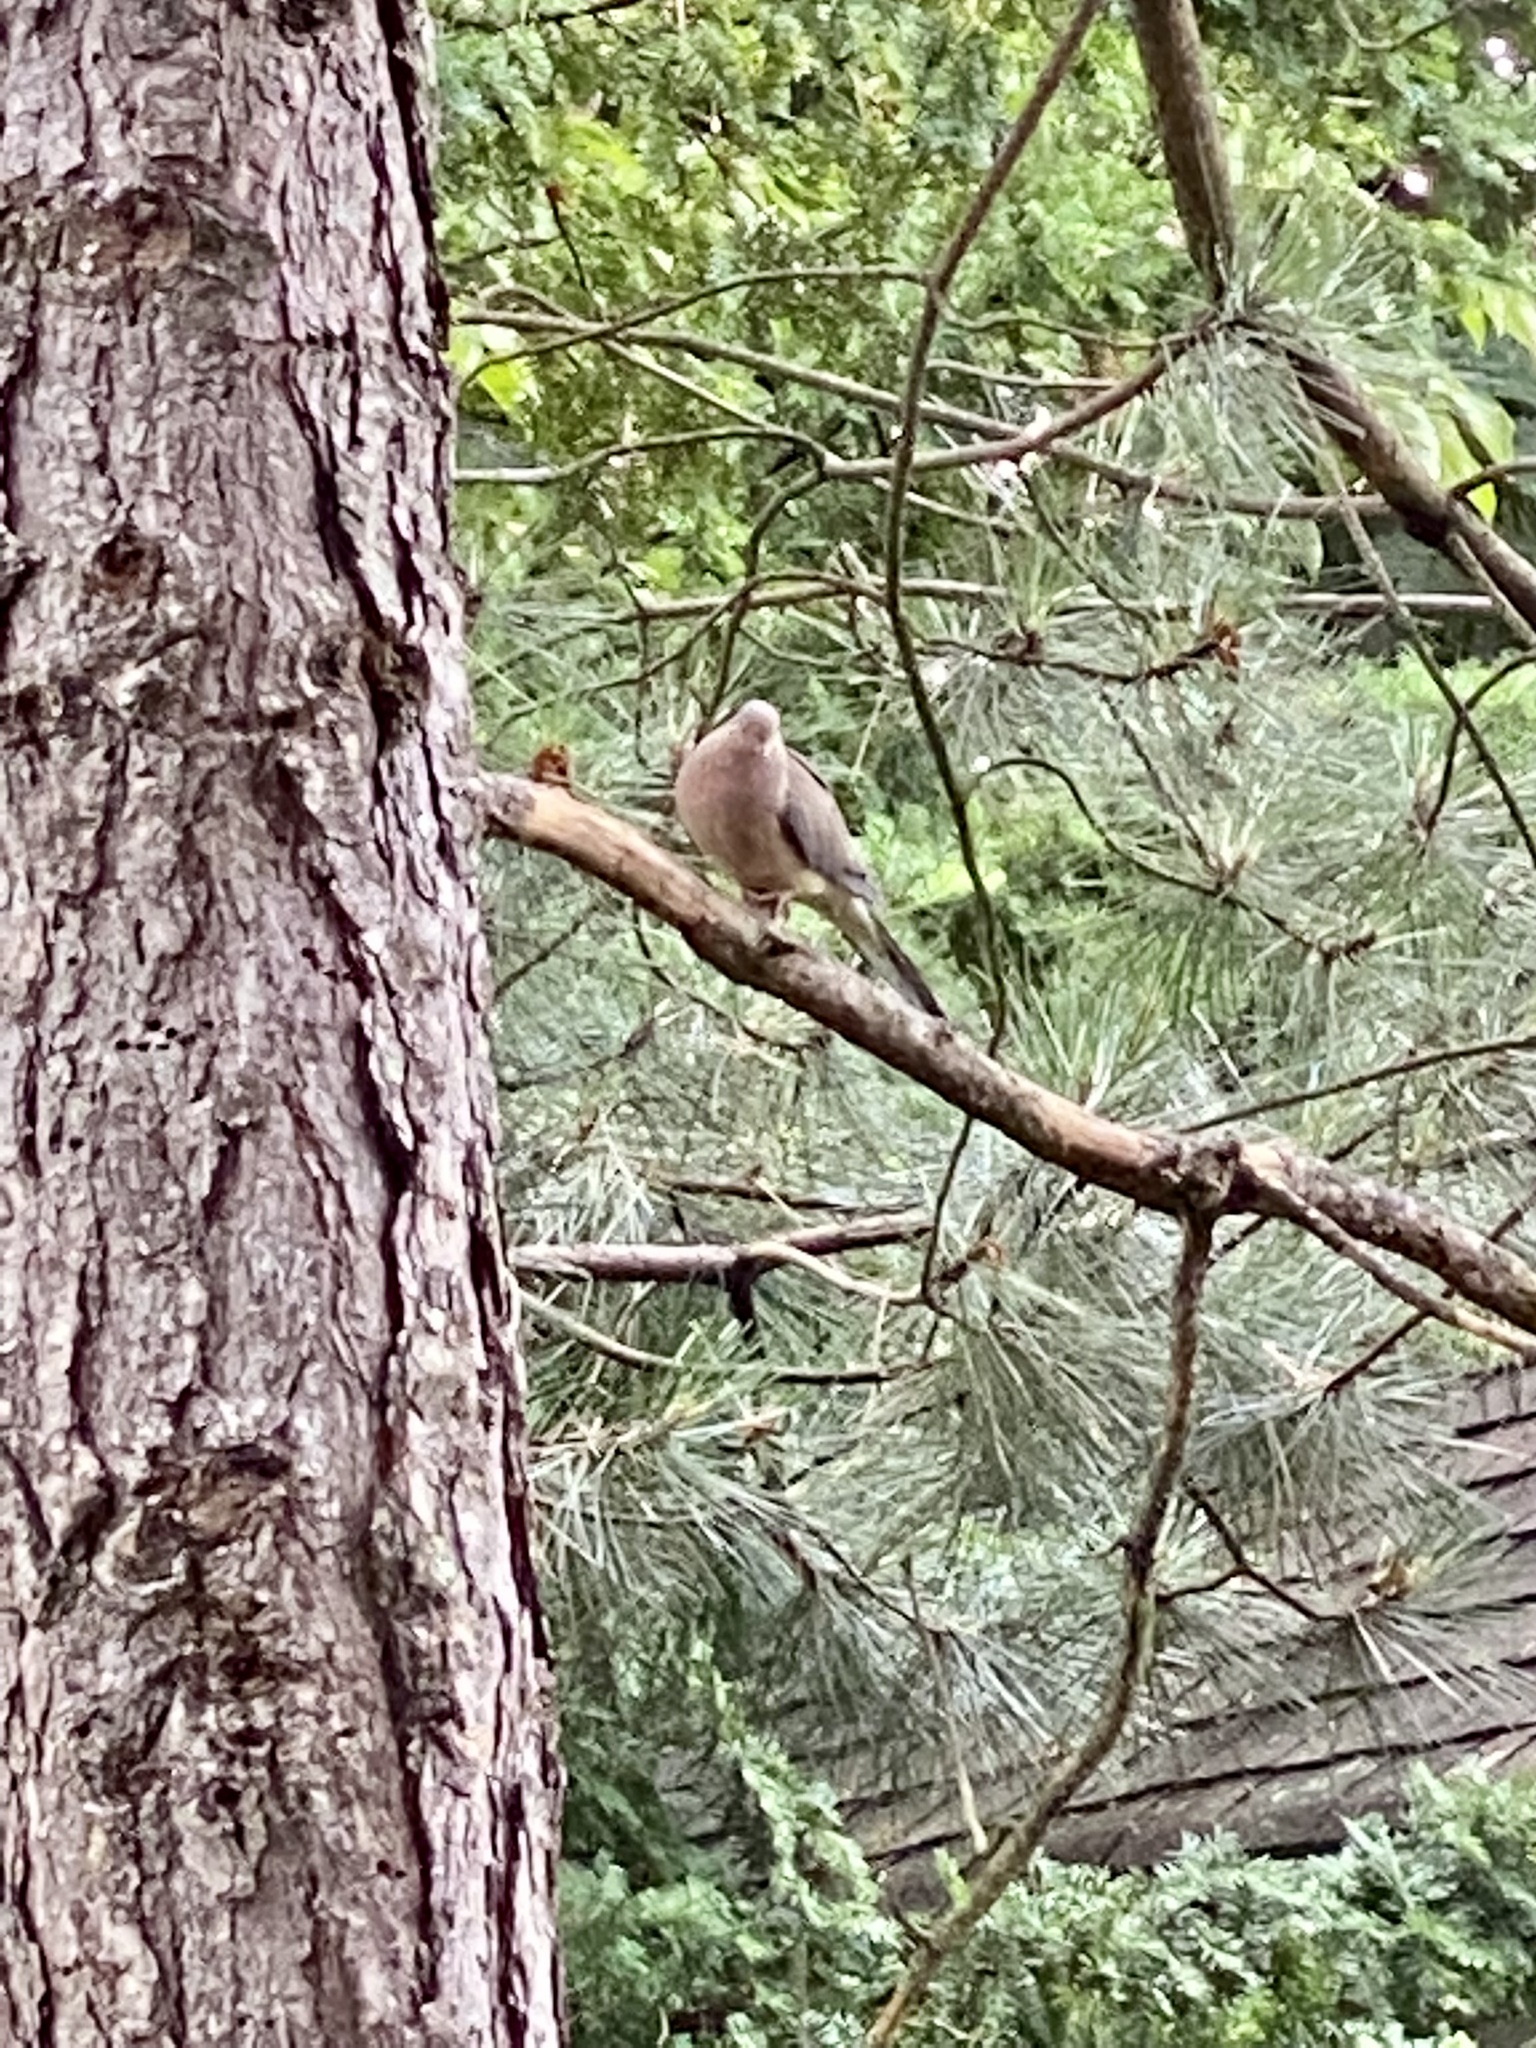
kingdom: Animalia
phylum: Chordata
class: Aves
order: Columbiformes
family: Columbidae
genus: Zenaida
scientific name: Zenaida macroura
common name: Mourning dove
